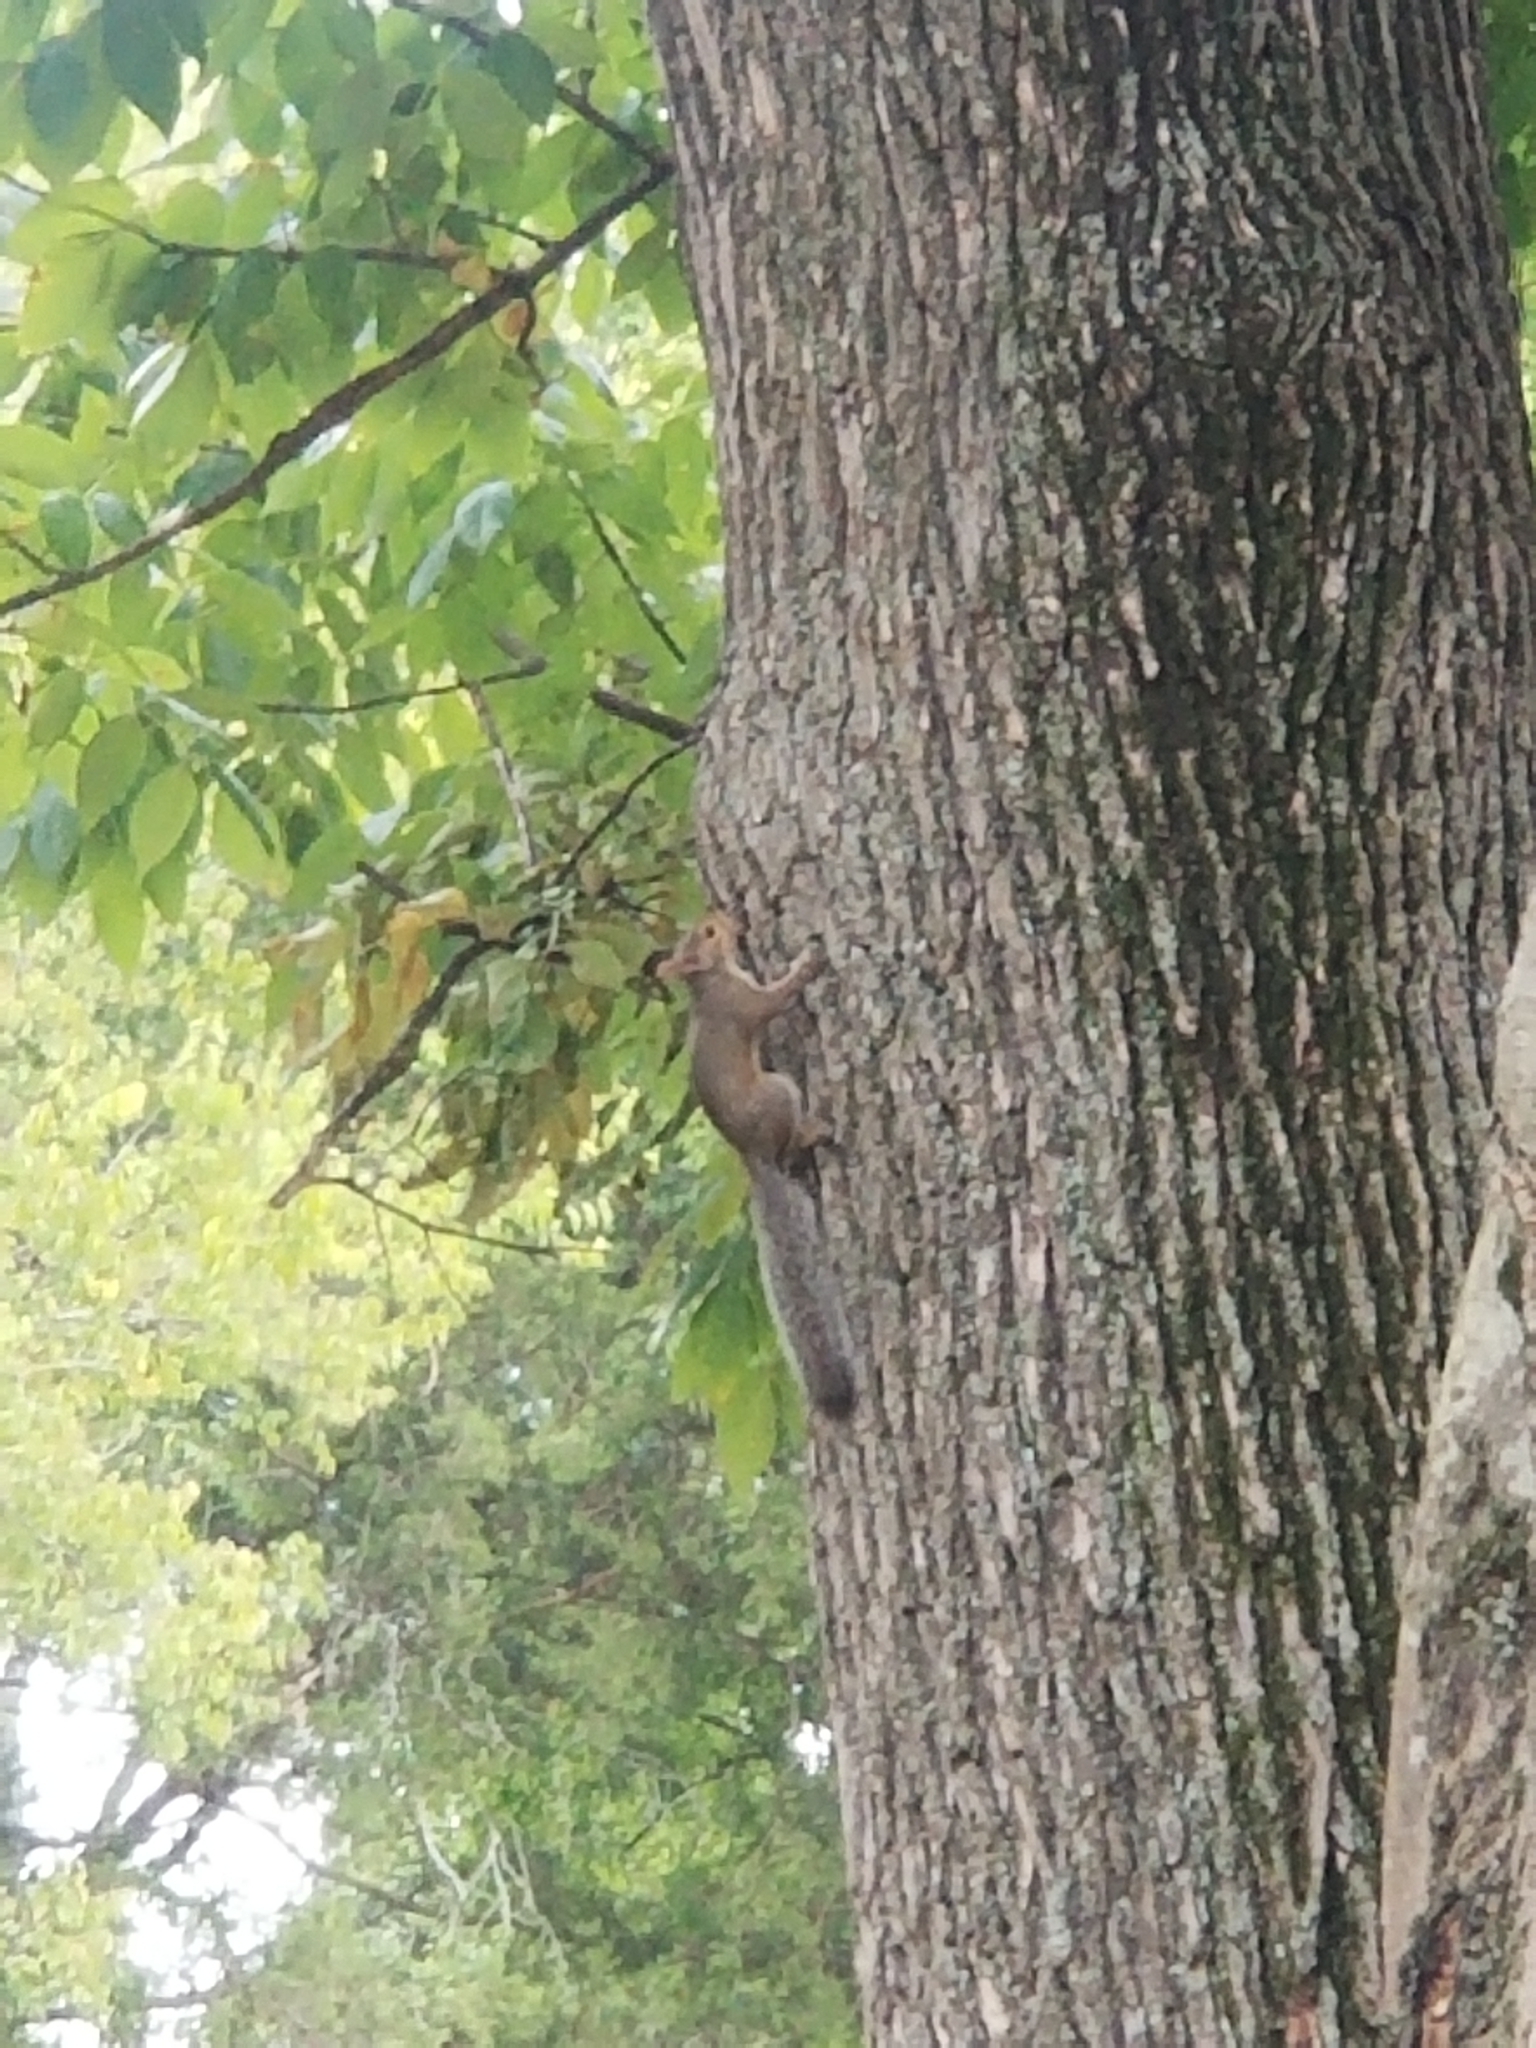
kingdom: Animalia
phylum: Chordata
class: Mammalia
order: Rodentia
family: Sciuridae
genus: Sciurus
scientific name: Sciurus carolinensis
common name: Eastern gray squirrel
